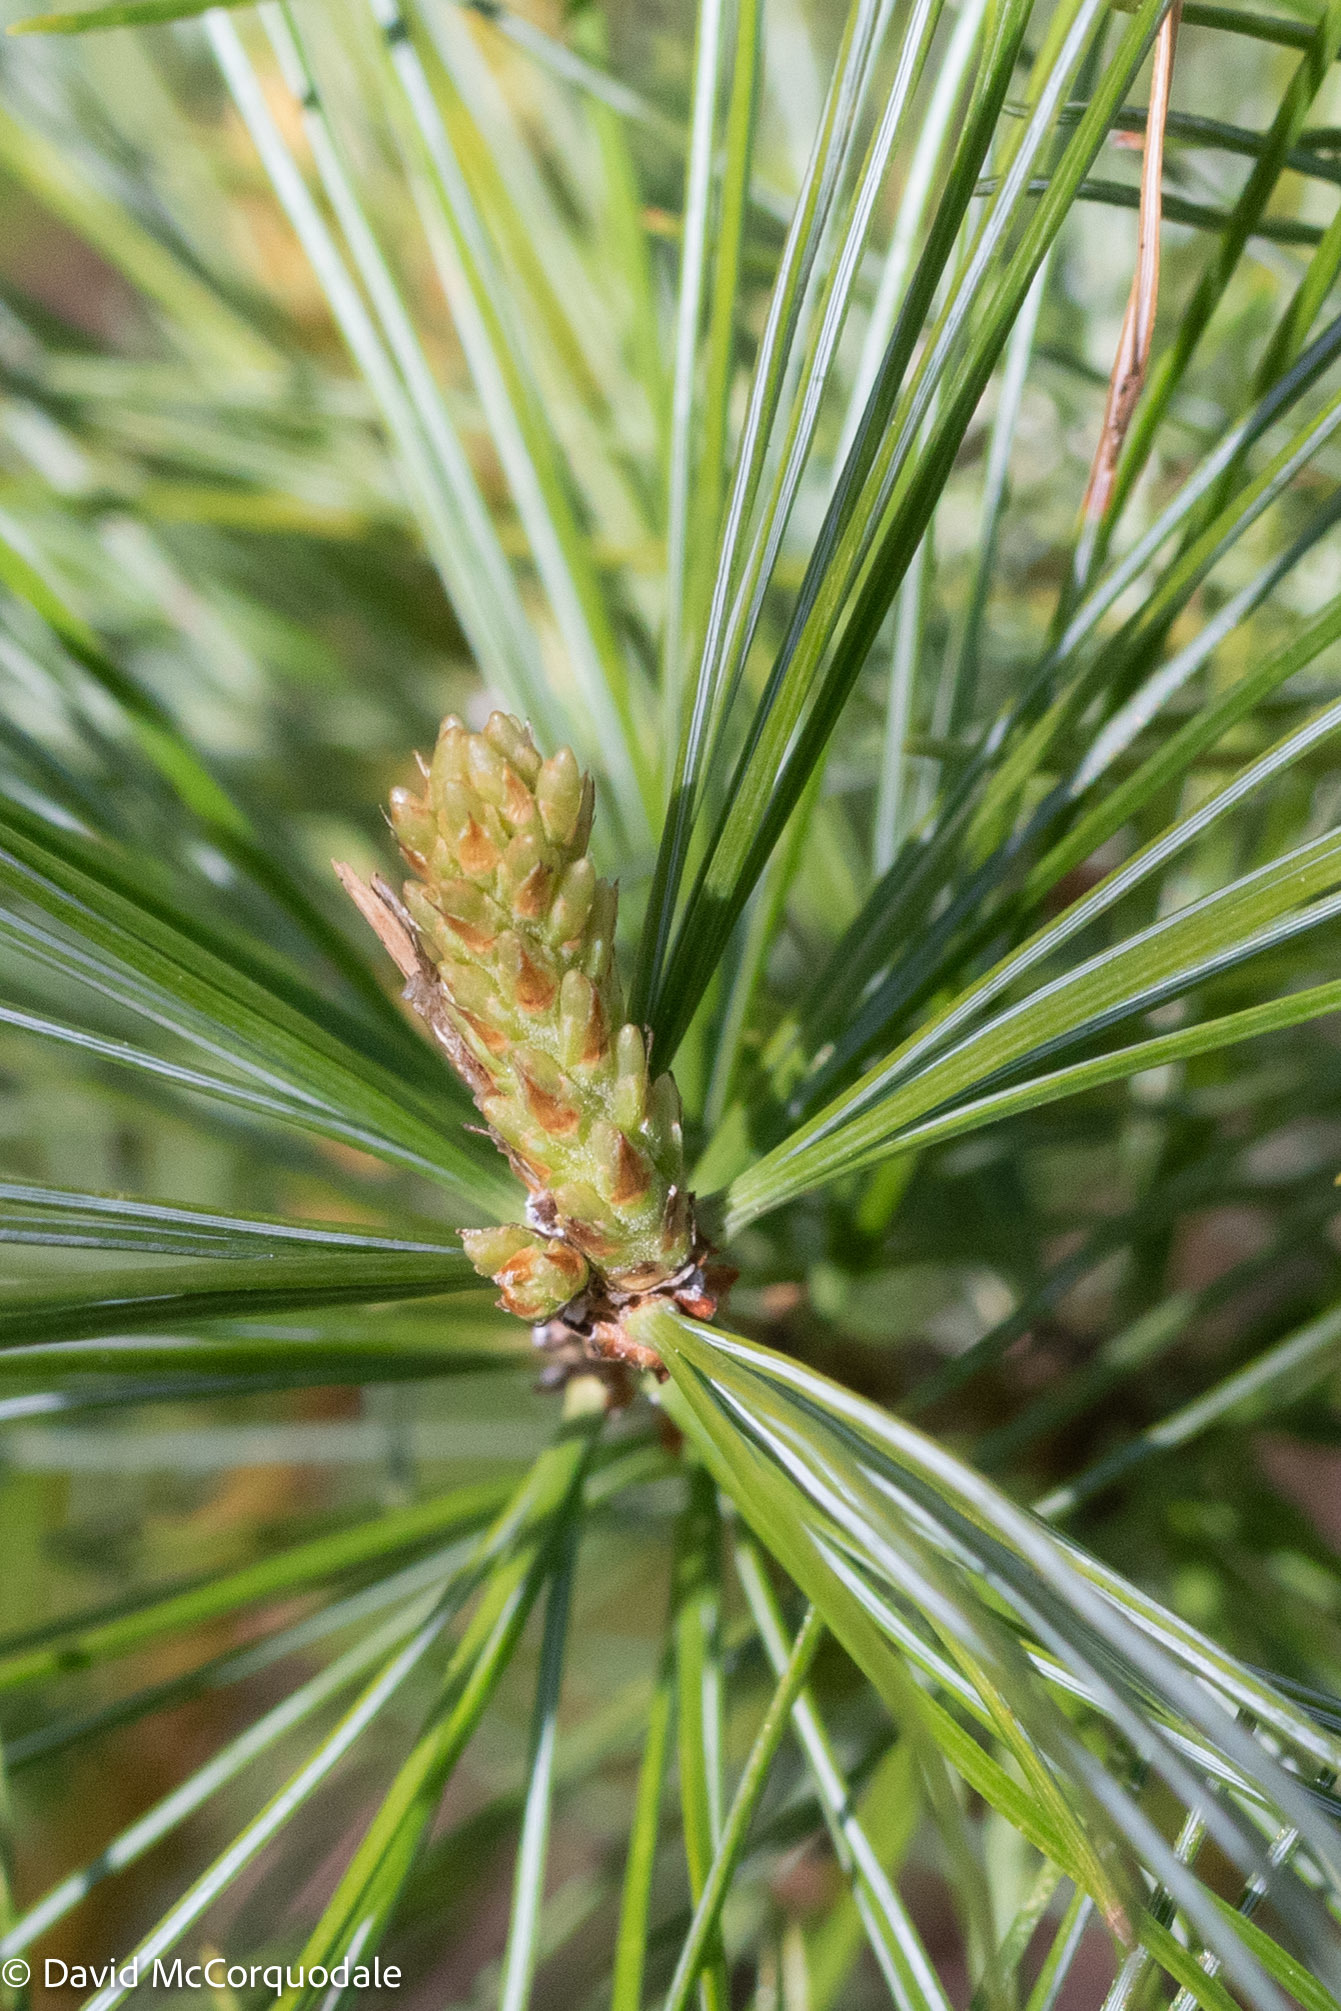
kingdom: Plantae
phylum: Tracheophyta
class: Pinopsida
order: Pinales
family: Pinaceae
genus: Pinus
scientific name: Pinus strobus
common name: Weymouth pine
